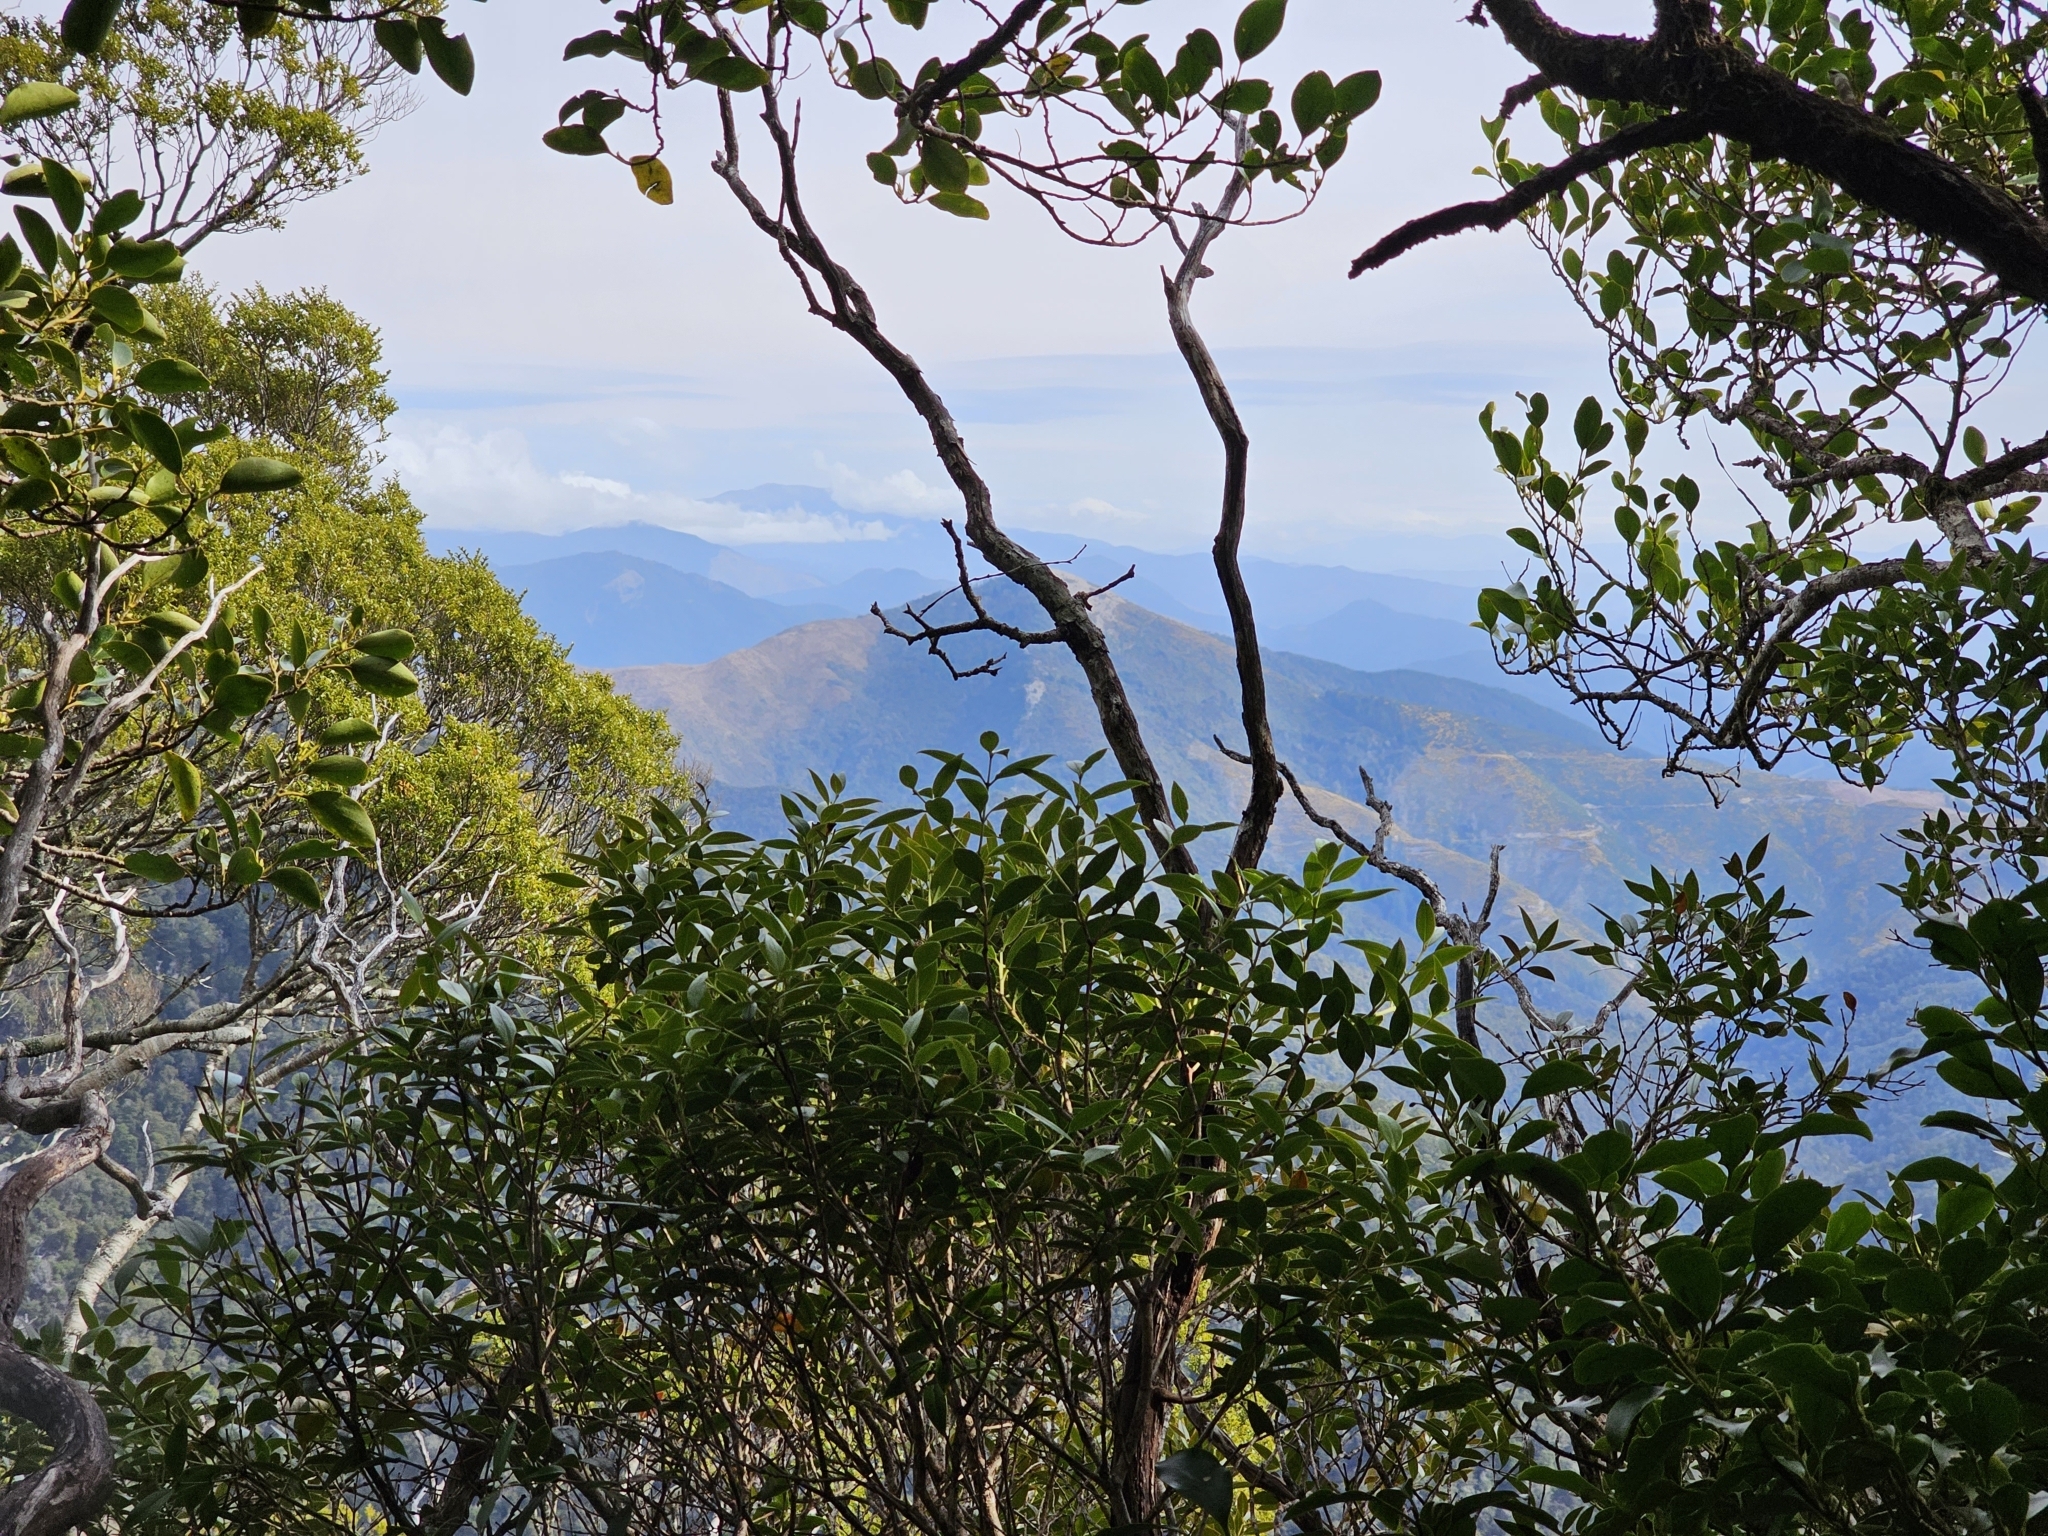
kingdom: Plantae
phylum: Tracheophyta
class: Magnoliopsida
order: Myrtales
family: Myrtaceae
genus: Metrosideros
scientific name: Metrosideros umbellata
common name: Southern rata
